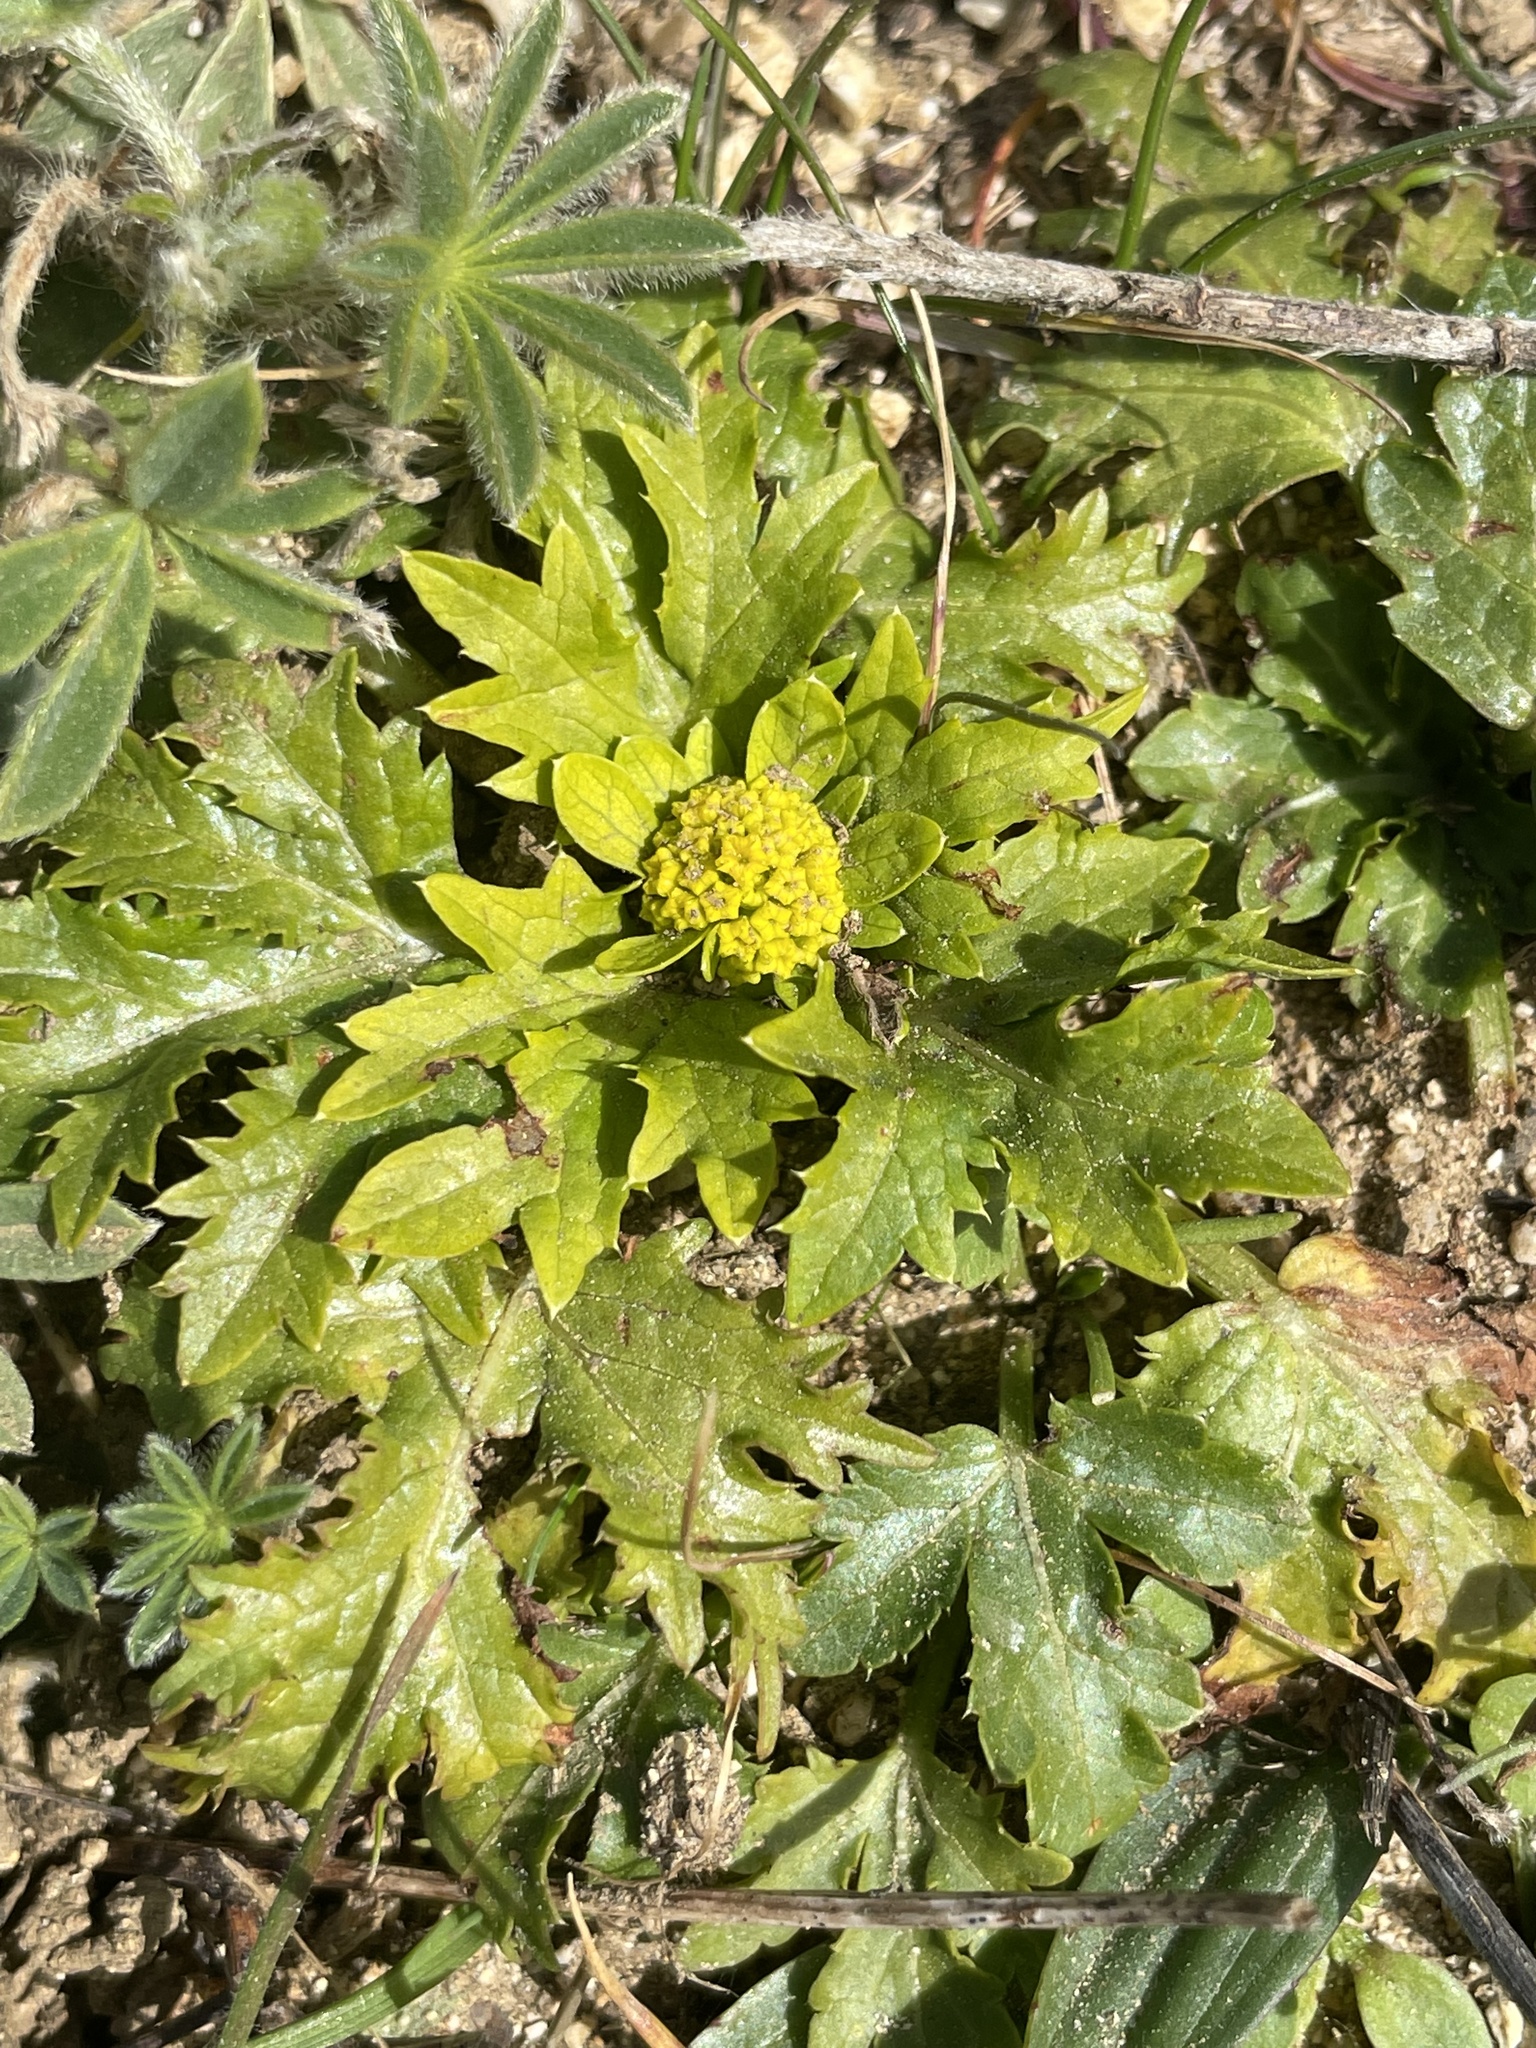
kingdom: Plantae
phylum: Tracheophyta
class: Magnoliopsida
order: Apiales
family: Apiaceae
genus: Sanicula
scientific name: Sanicula arctopoides
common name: Footsteps-of-spring
